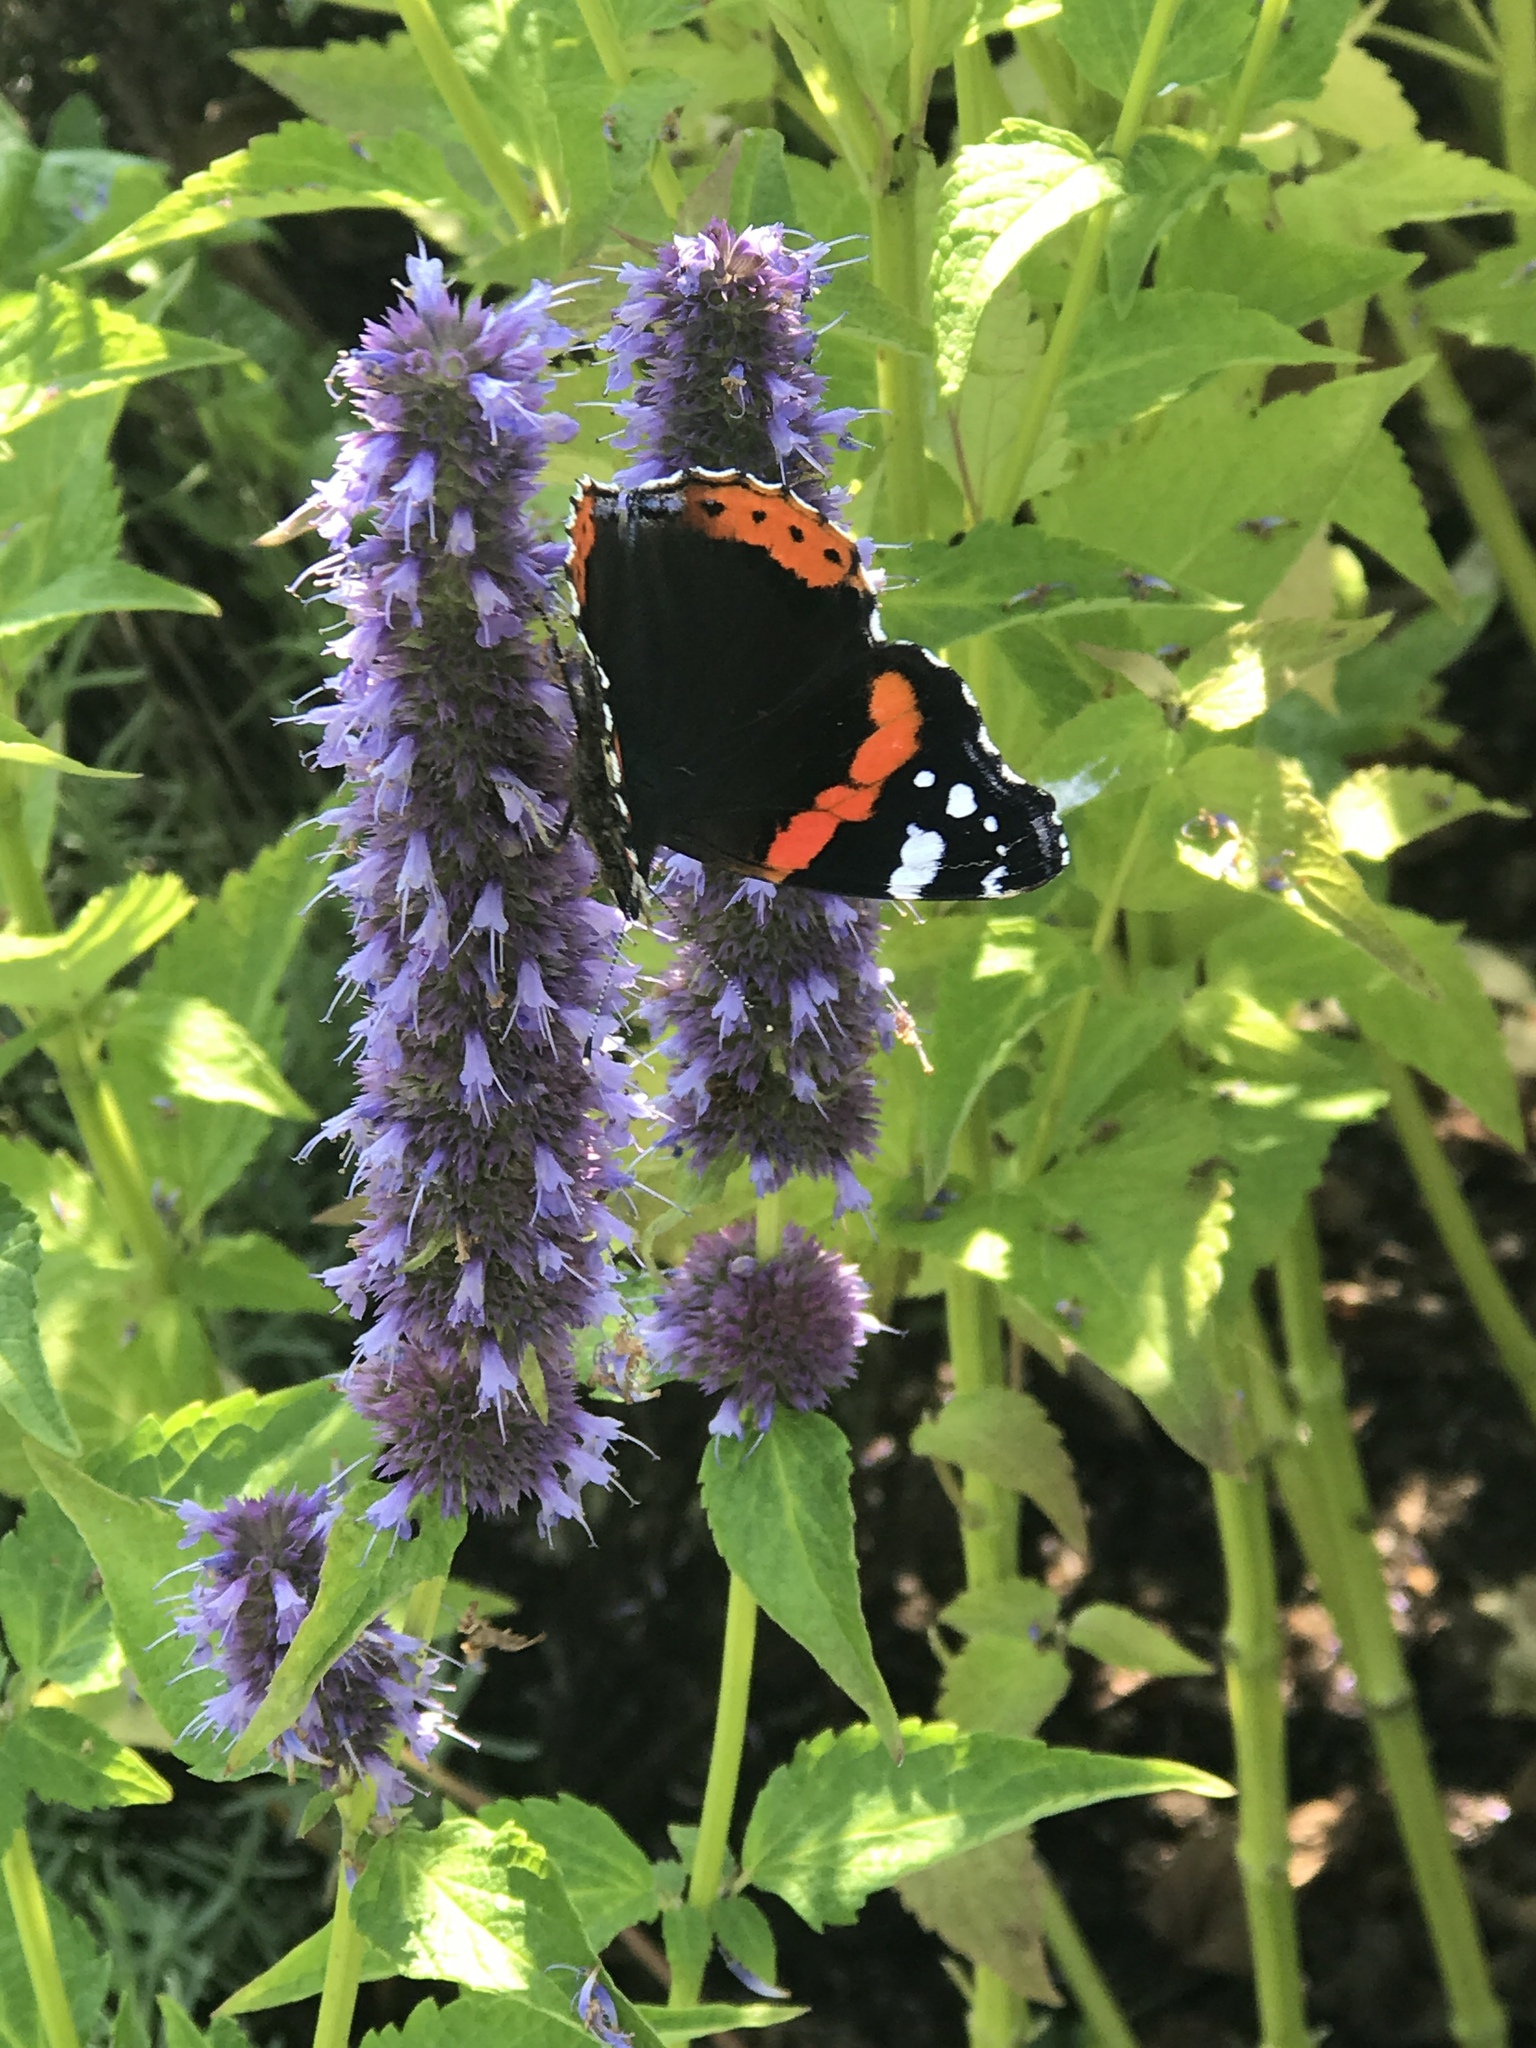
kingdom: Animalia
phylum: Arthropoda
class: Insecta
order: Lepidoptera
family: Nymphalidae
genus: Vanessa
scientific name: Vanessa atalanta
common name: Red admiral
